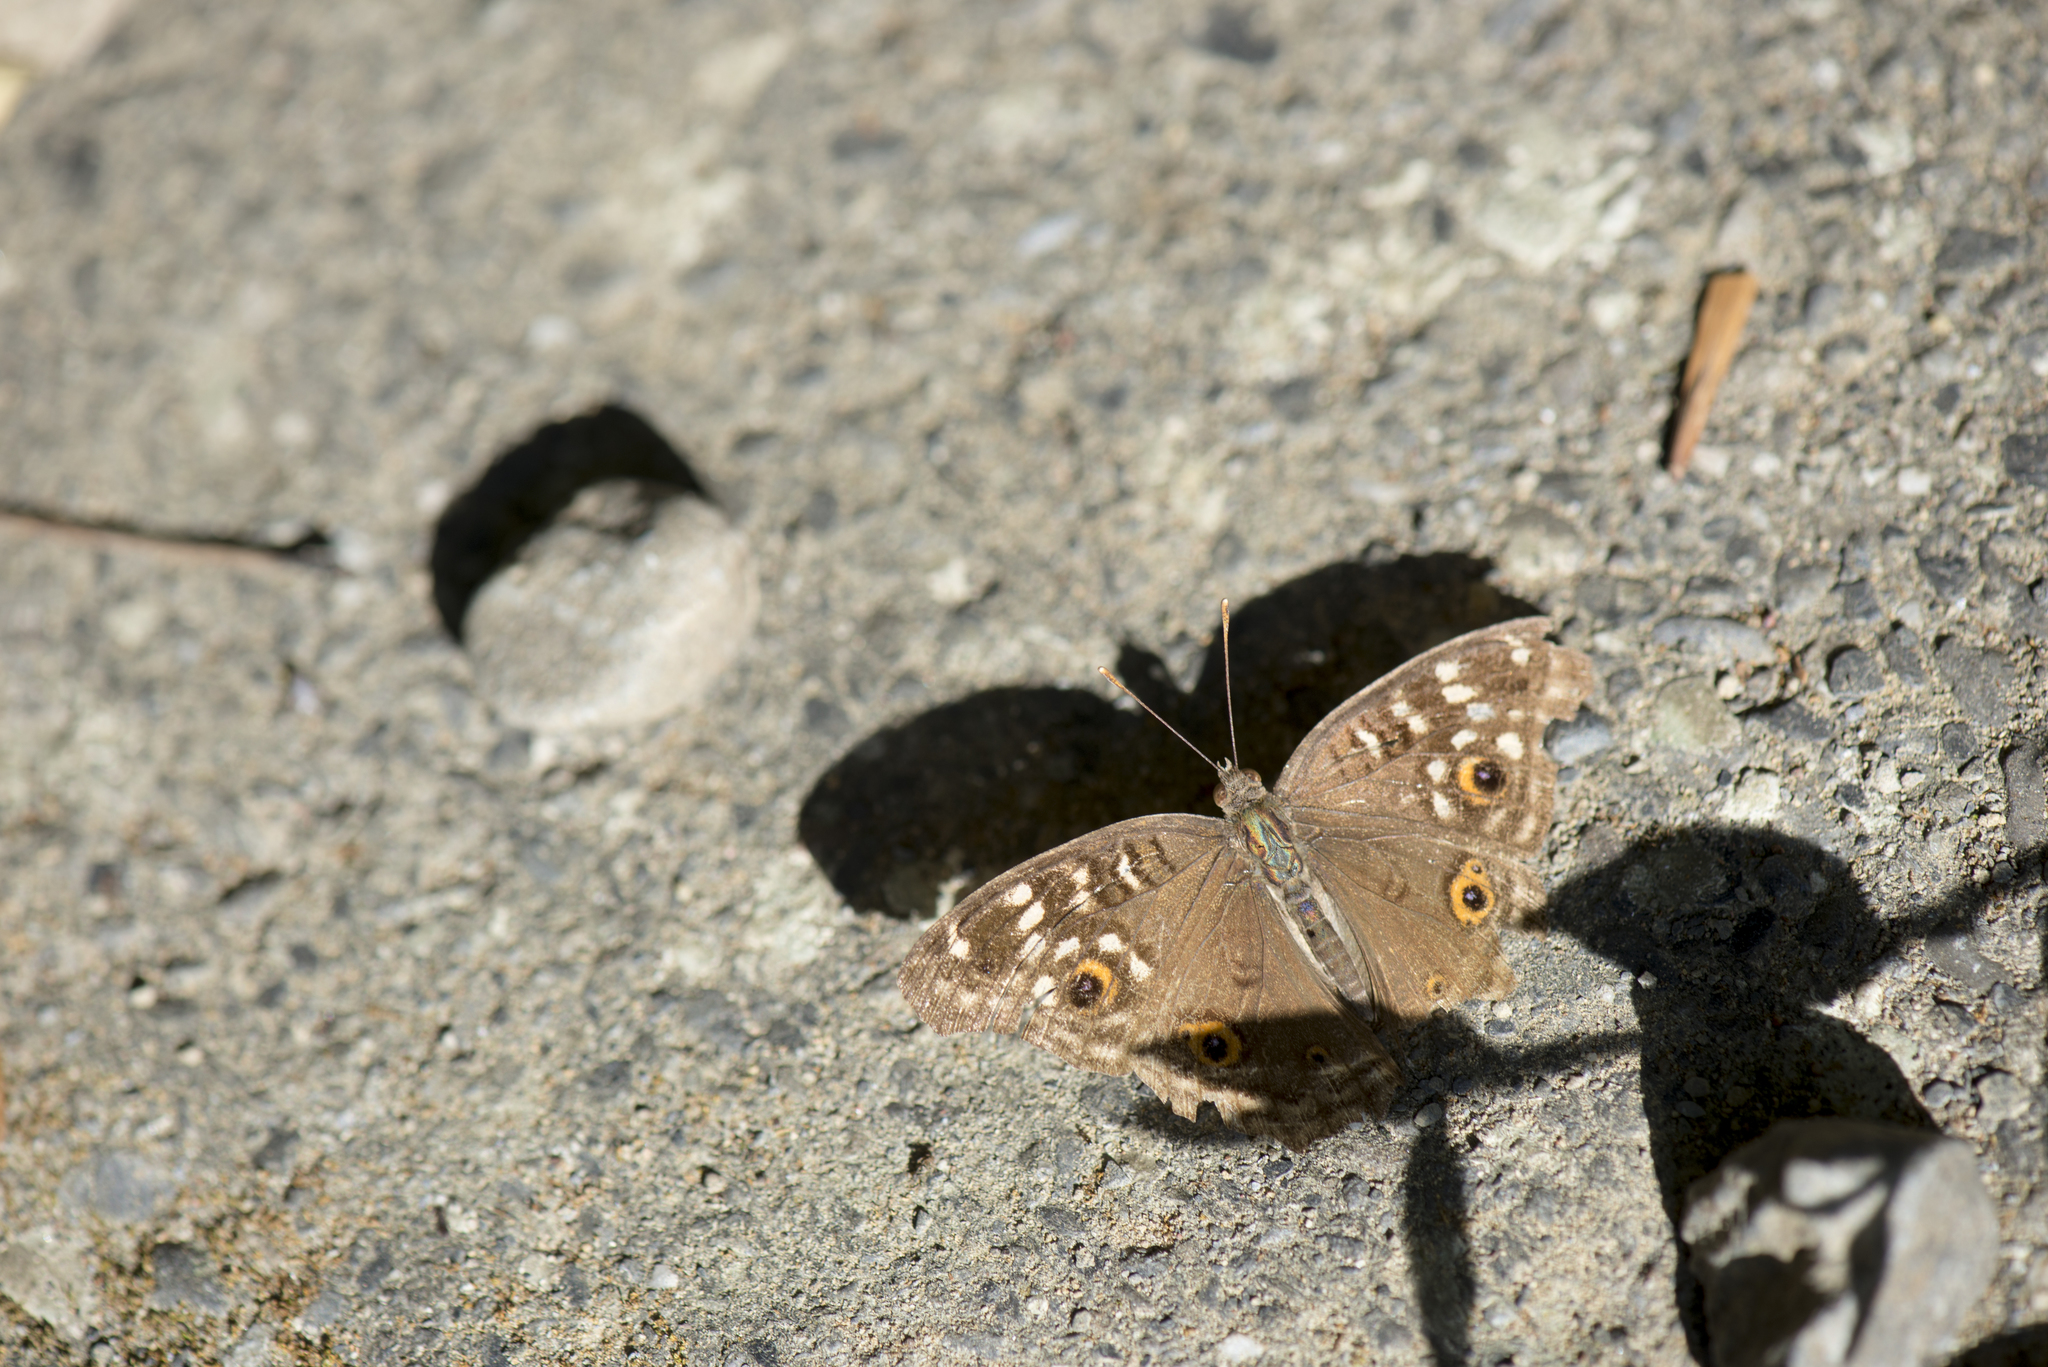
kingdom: Animalia
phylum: Arthropoda
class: Insecta
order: Lepidoptera
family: Nymphalidae
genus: Junonia
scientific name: Junonia lemonias
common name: Lemon pansy
